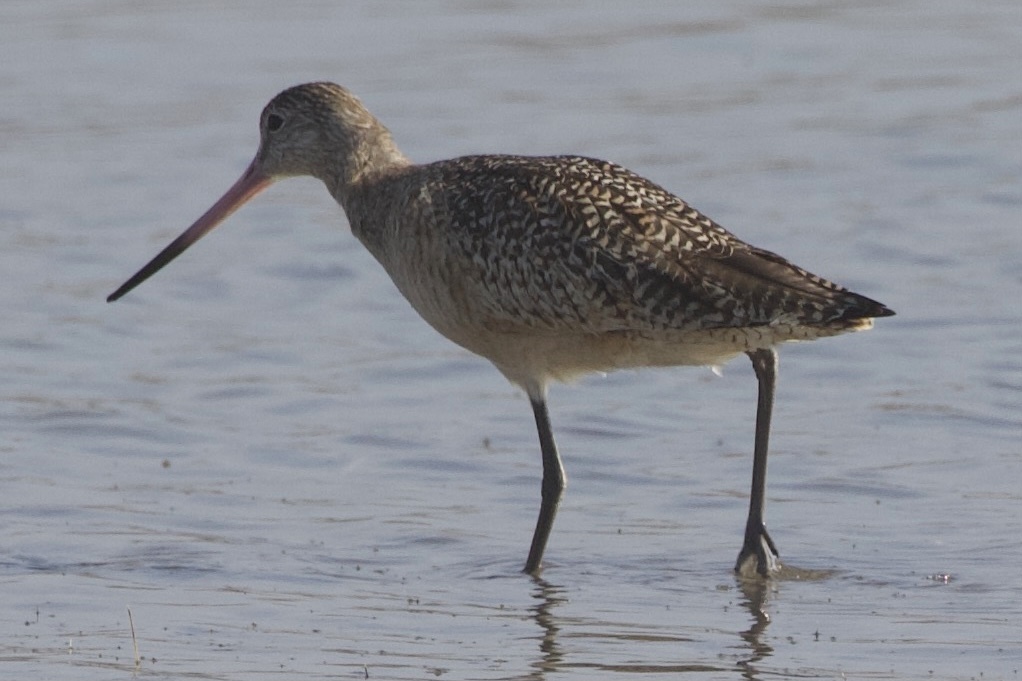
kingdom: Animalia
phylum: Chordata
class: Aves
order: Charadriiformes
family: Scolopacidae
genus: Limosa
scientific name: Limosa fedoa
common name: Marbled godwit
